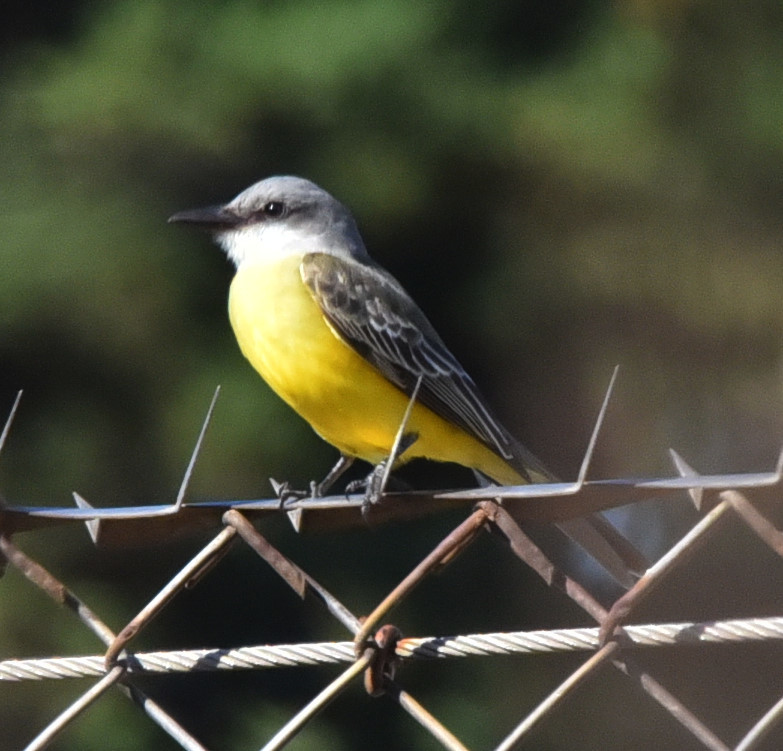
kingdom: Animalia
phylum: Chordata
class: Aves
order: Passeriformes
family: Tyrannidae
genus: Tyrannus
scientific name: Tyrannus melancholicus
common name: Tropical kingbird
